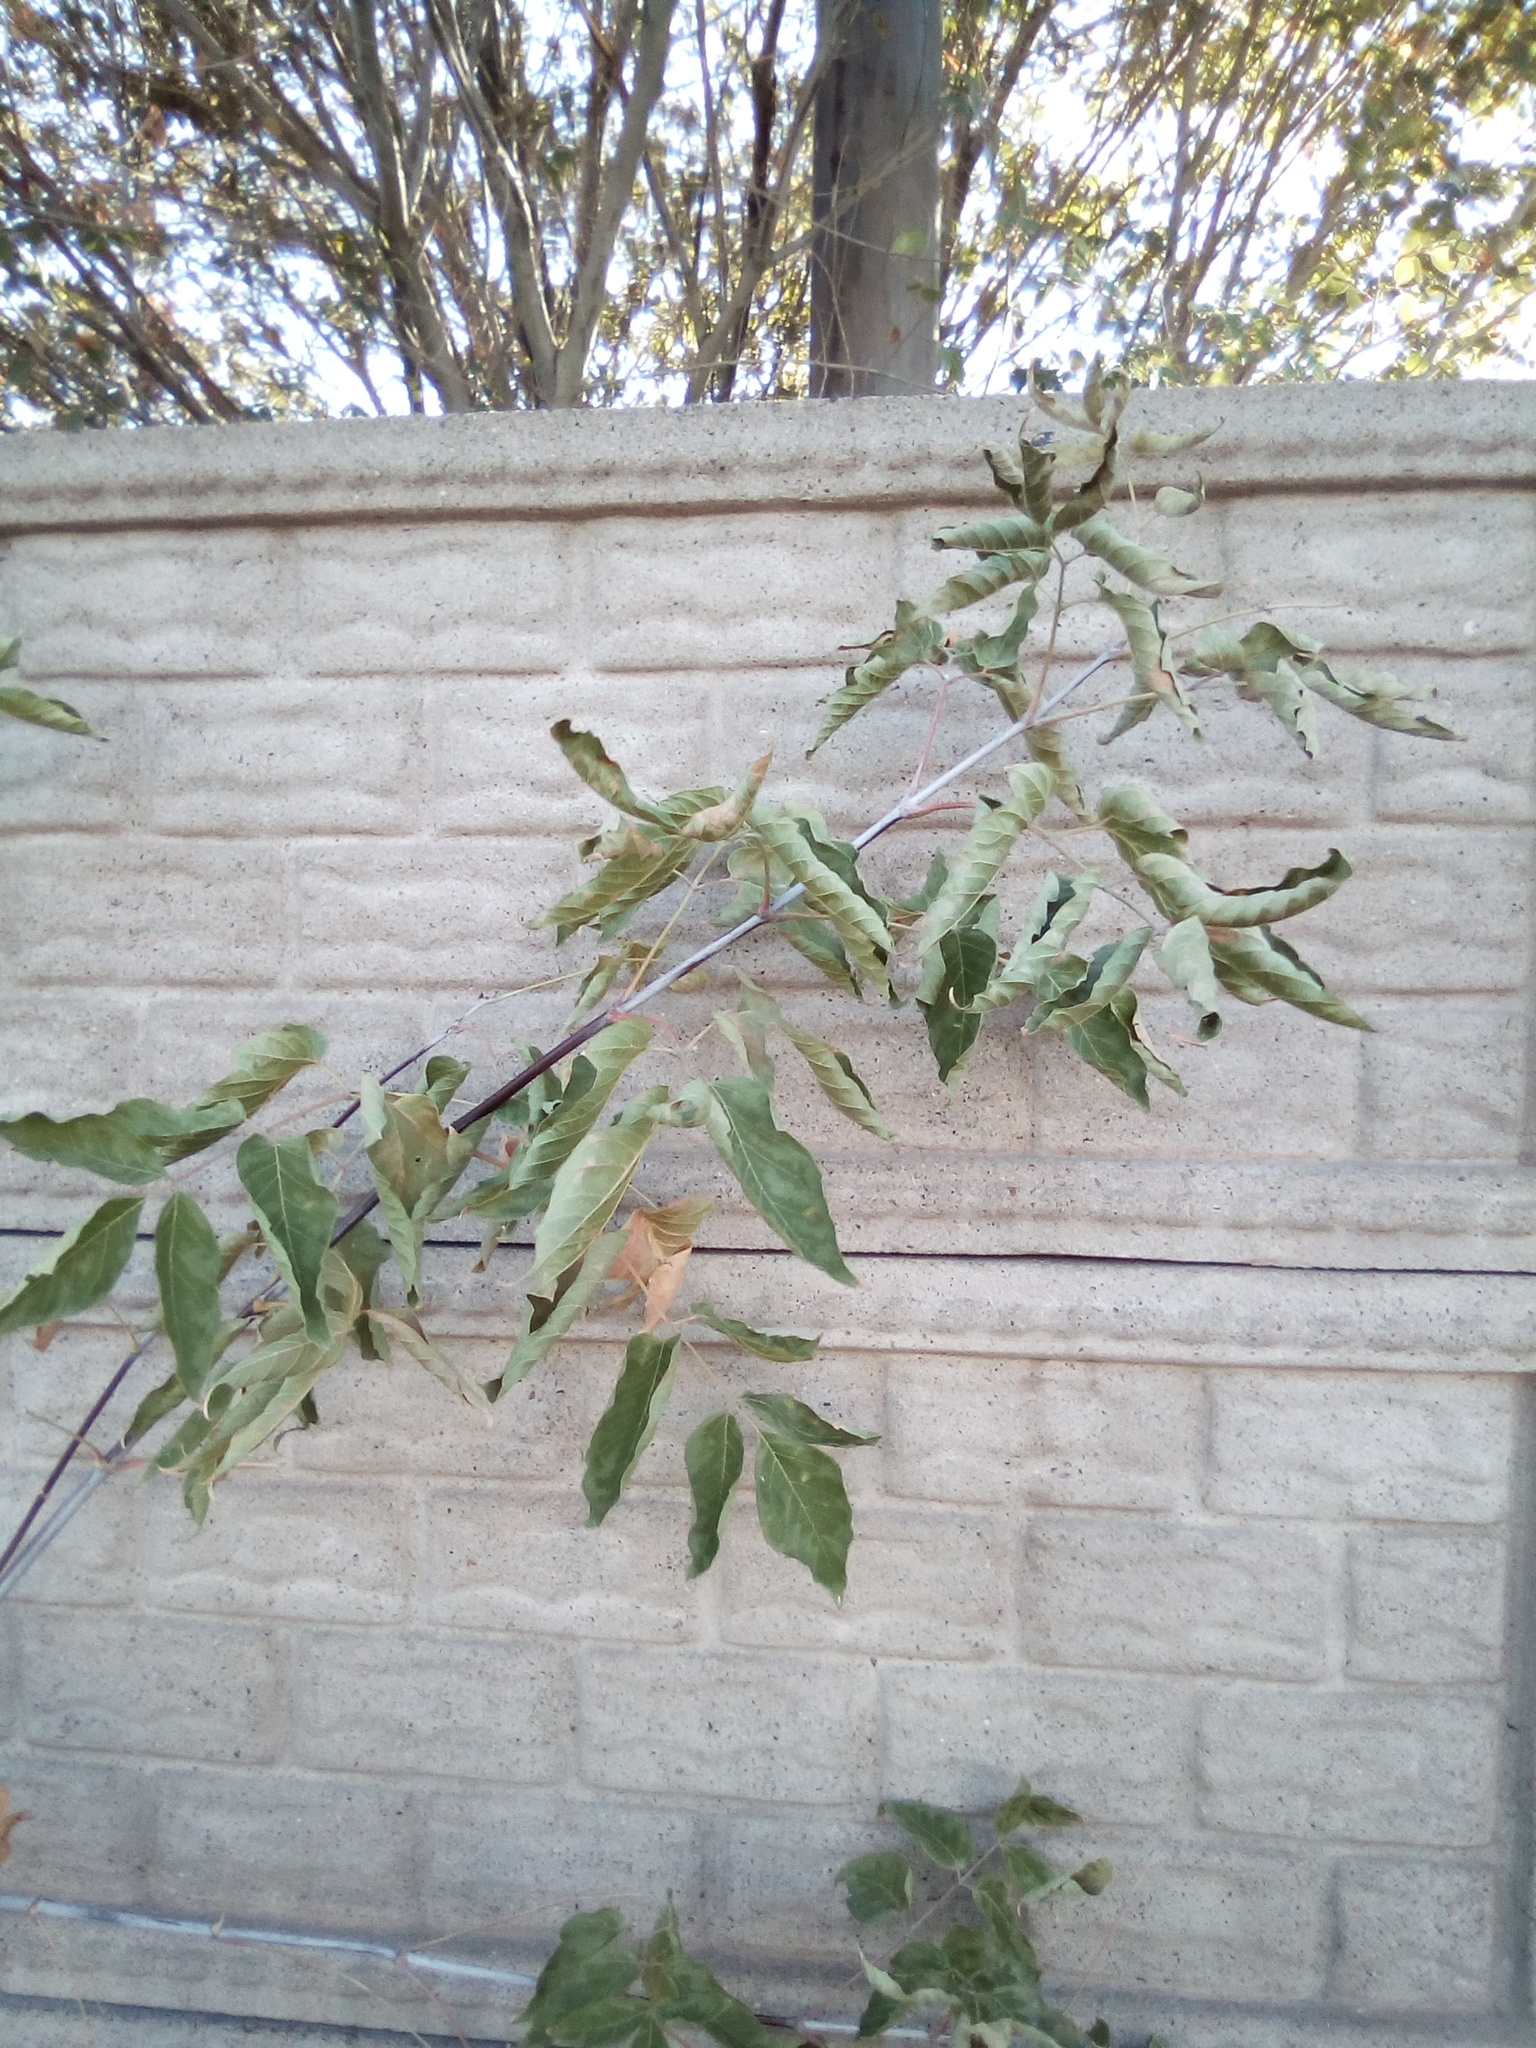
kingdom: Plantae
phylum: Tracheophyta
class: Magnoliopsida
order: Sapindales
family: Sapindaceae
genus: Acer
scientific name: Acer negundo
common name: Ashleaf maple
